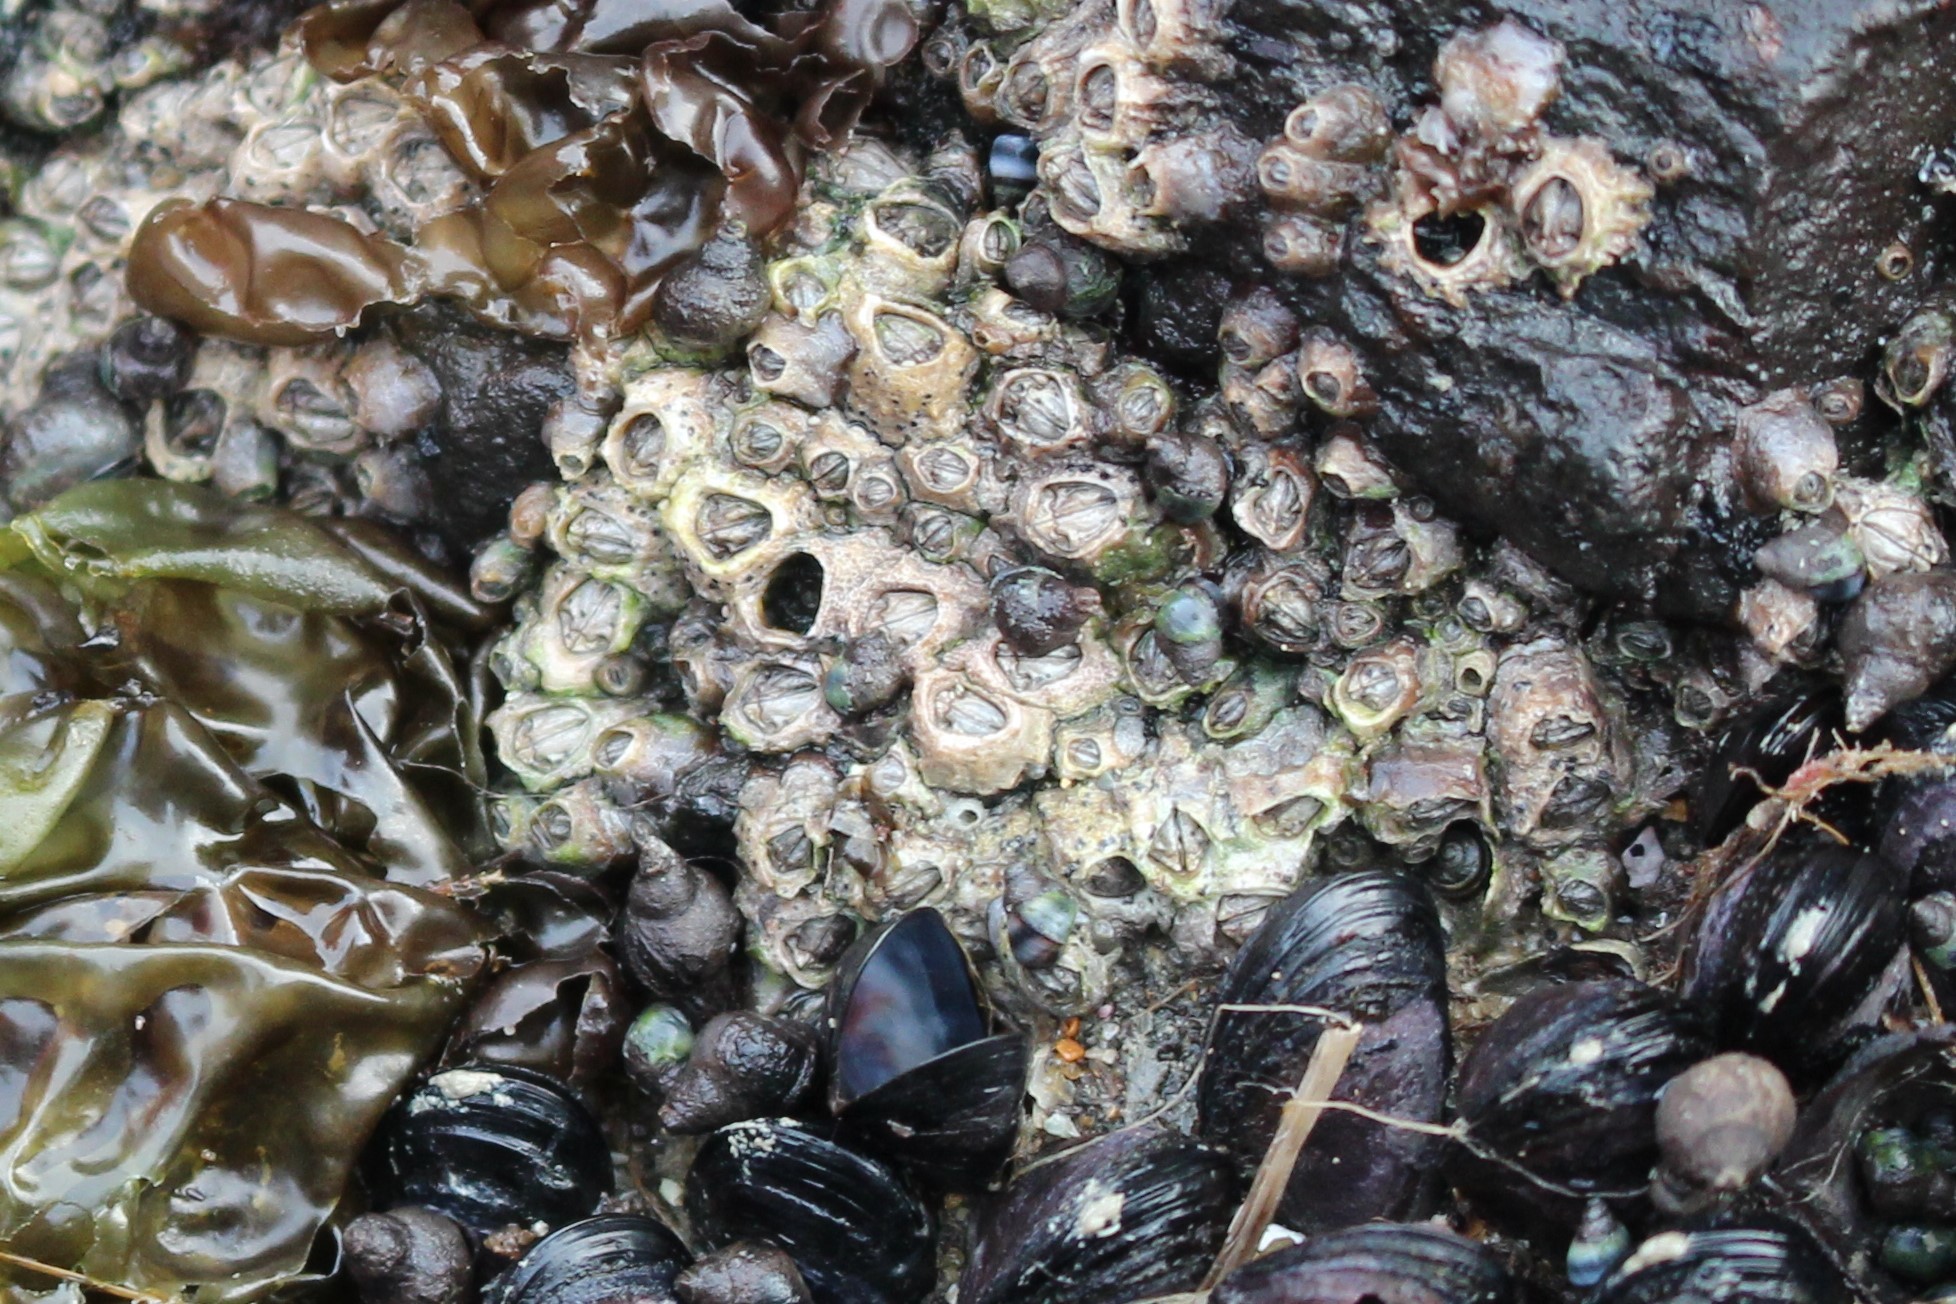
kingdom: Animalia
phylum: Arthropoda
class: Maxillopoda
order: Sessilia
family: Chthamalidae
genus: Chamaesipho
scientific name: Chamaesipho columna
